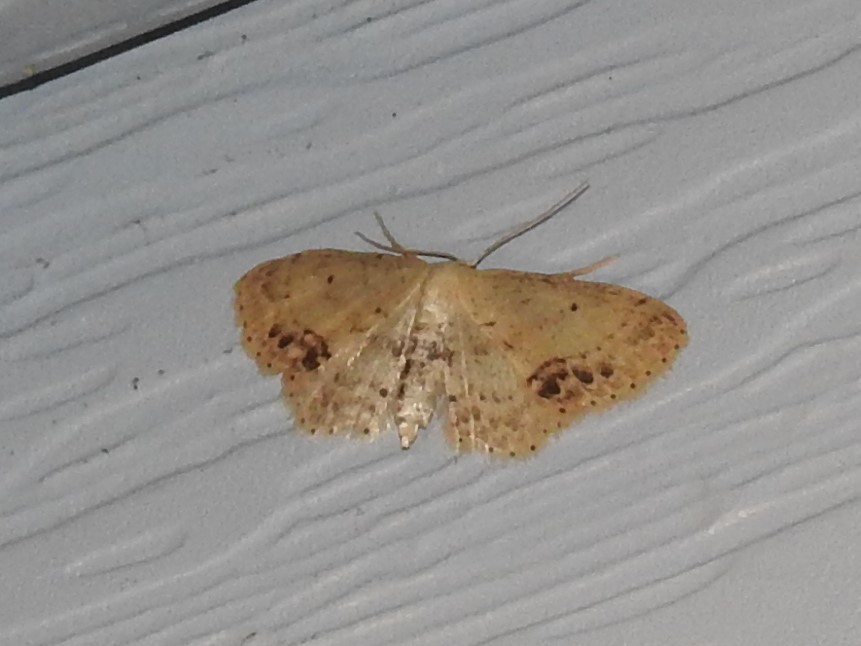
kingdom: Animalia
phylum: Arthropoda
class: Insecta
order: Lepidoptera
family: Geometridae
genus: Idaea
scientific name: Idaea dimidiata
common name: Single-dotted wave
